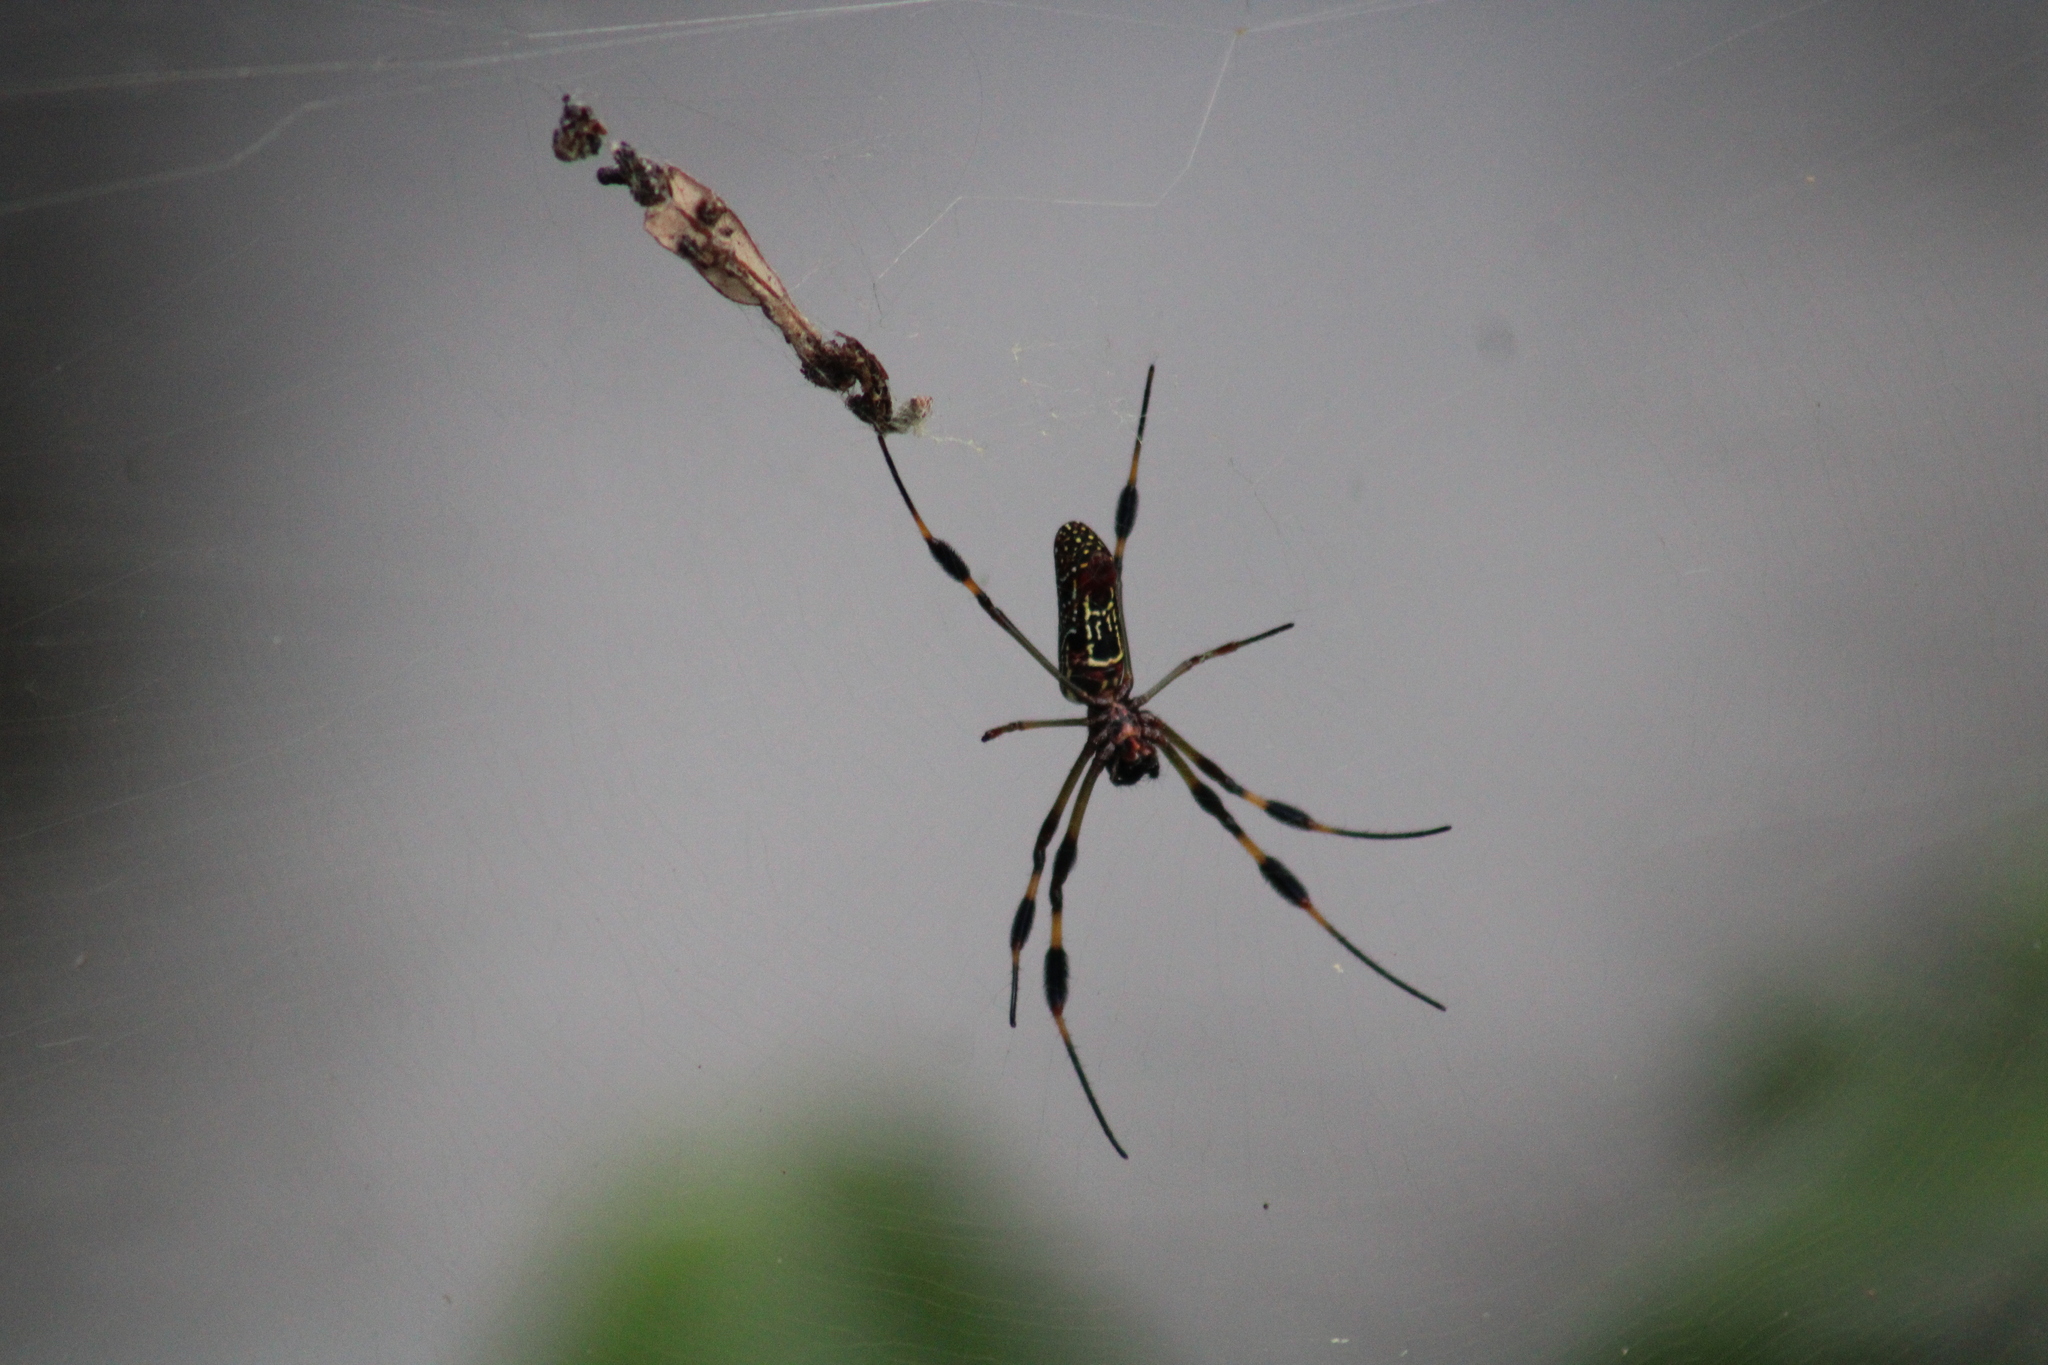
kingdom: Animalia
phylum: Arthropoda
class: Arachnida
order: Araneae
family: Araneidae
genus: Trichonephila
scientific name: Trichonephila clavipes
